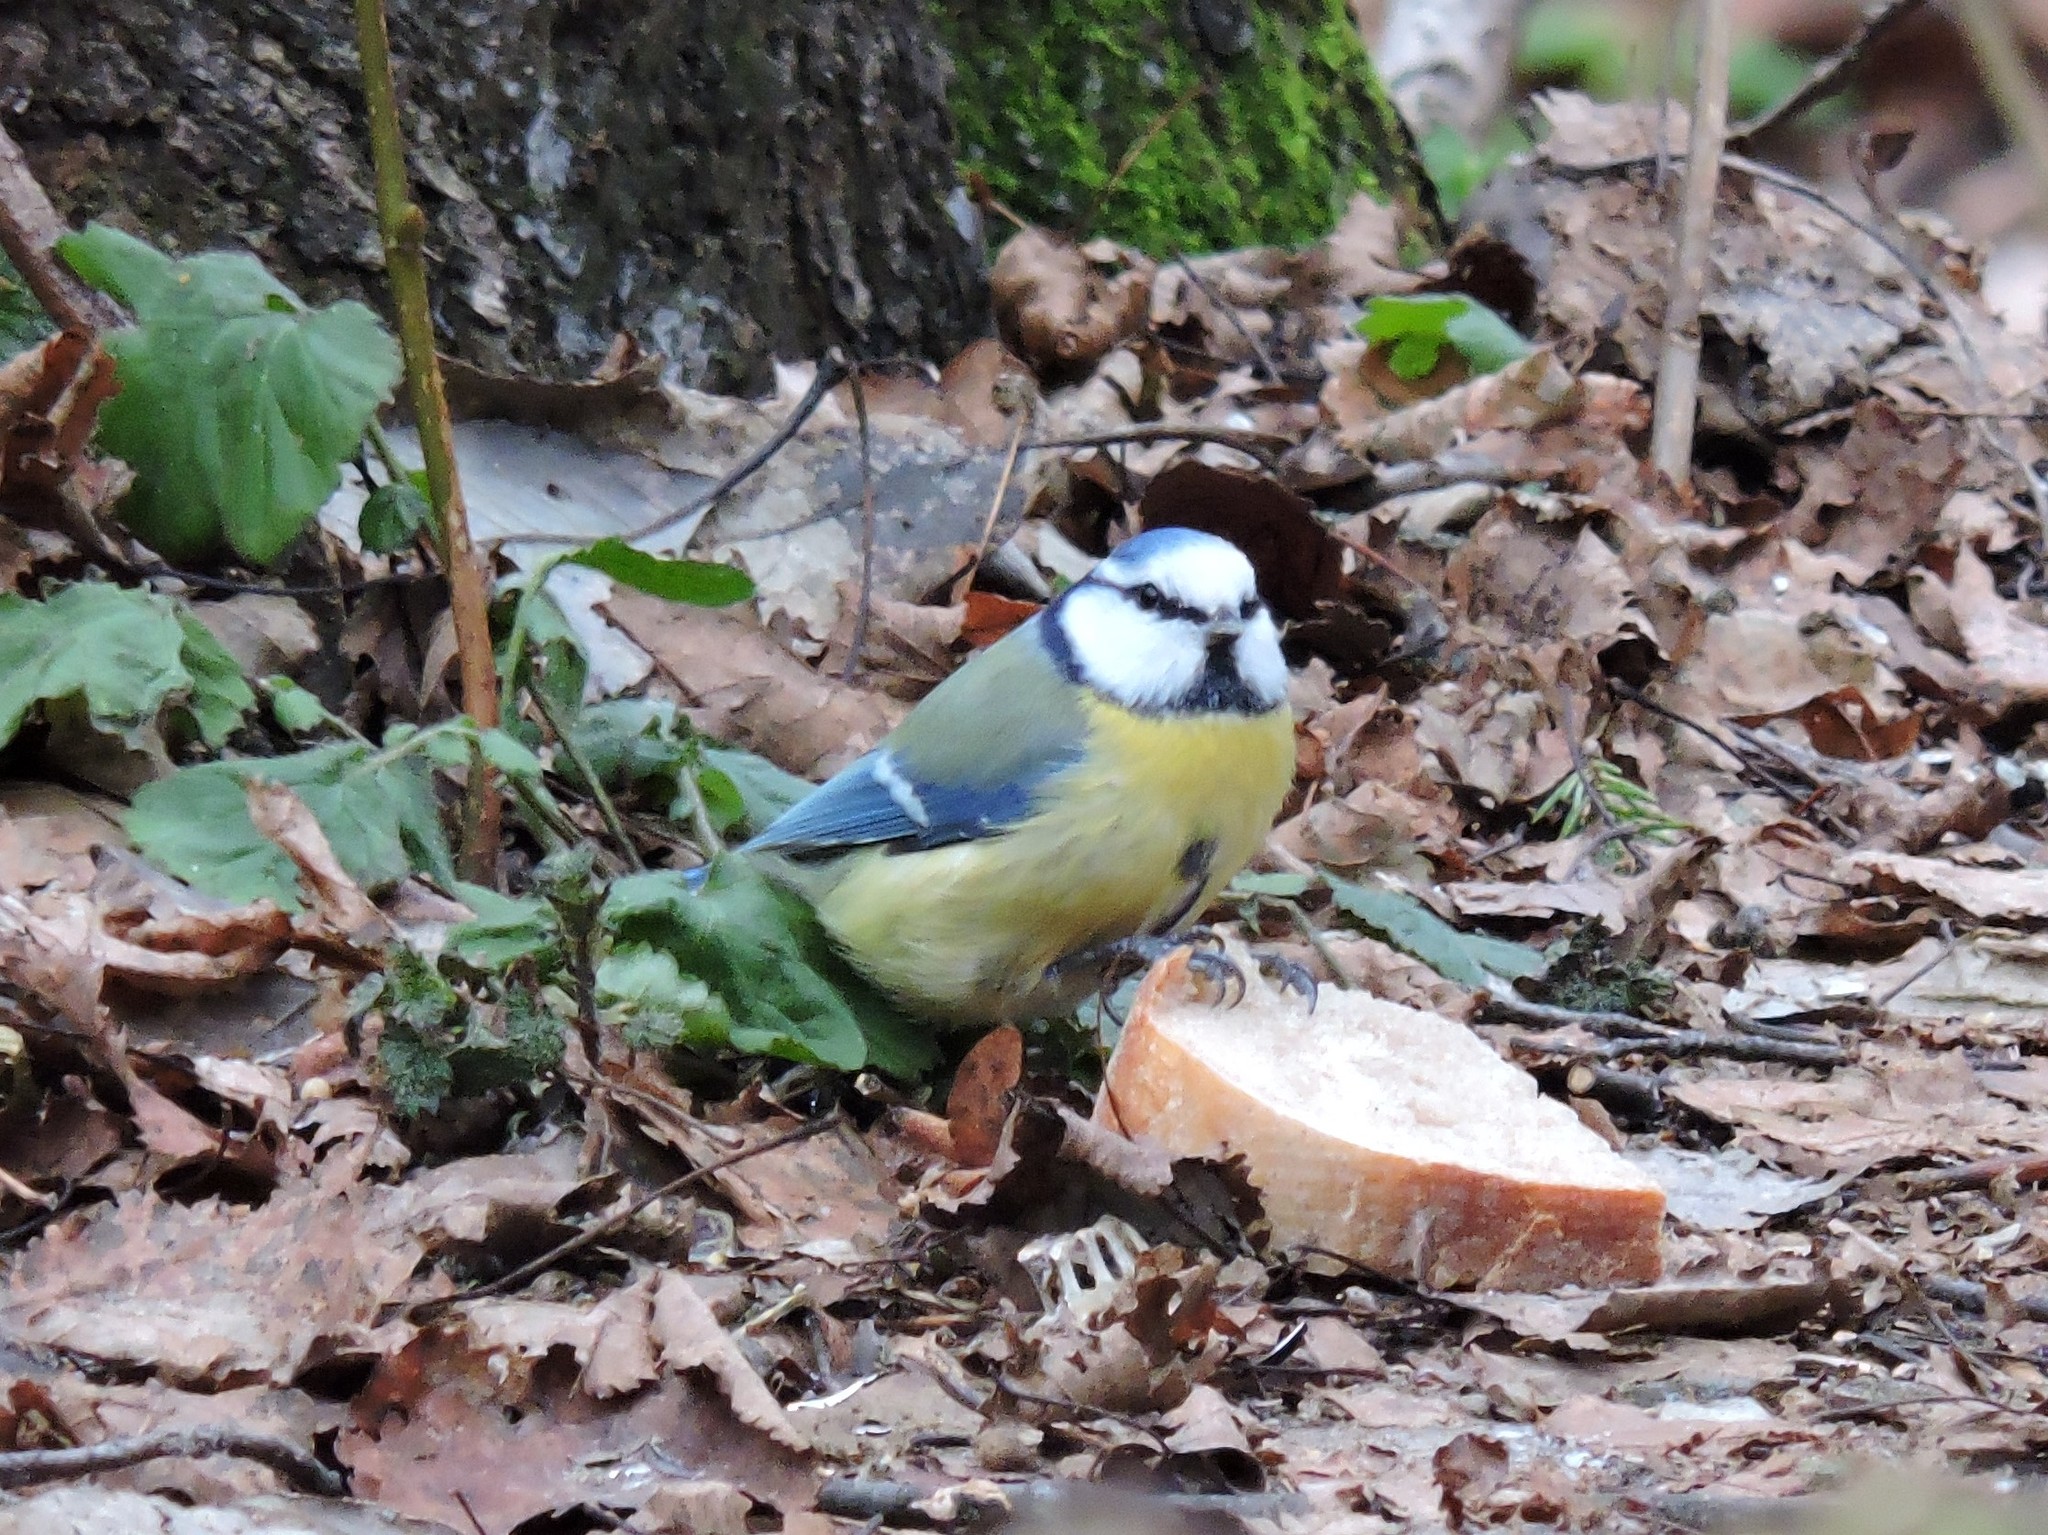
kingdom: Animalia
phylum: Chordata
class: Aves
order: Passeriformes
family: Paridae
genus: Cyanistes
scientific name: Cyanistes caeruleus
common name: Eurasian blue tit
